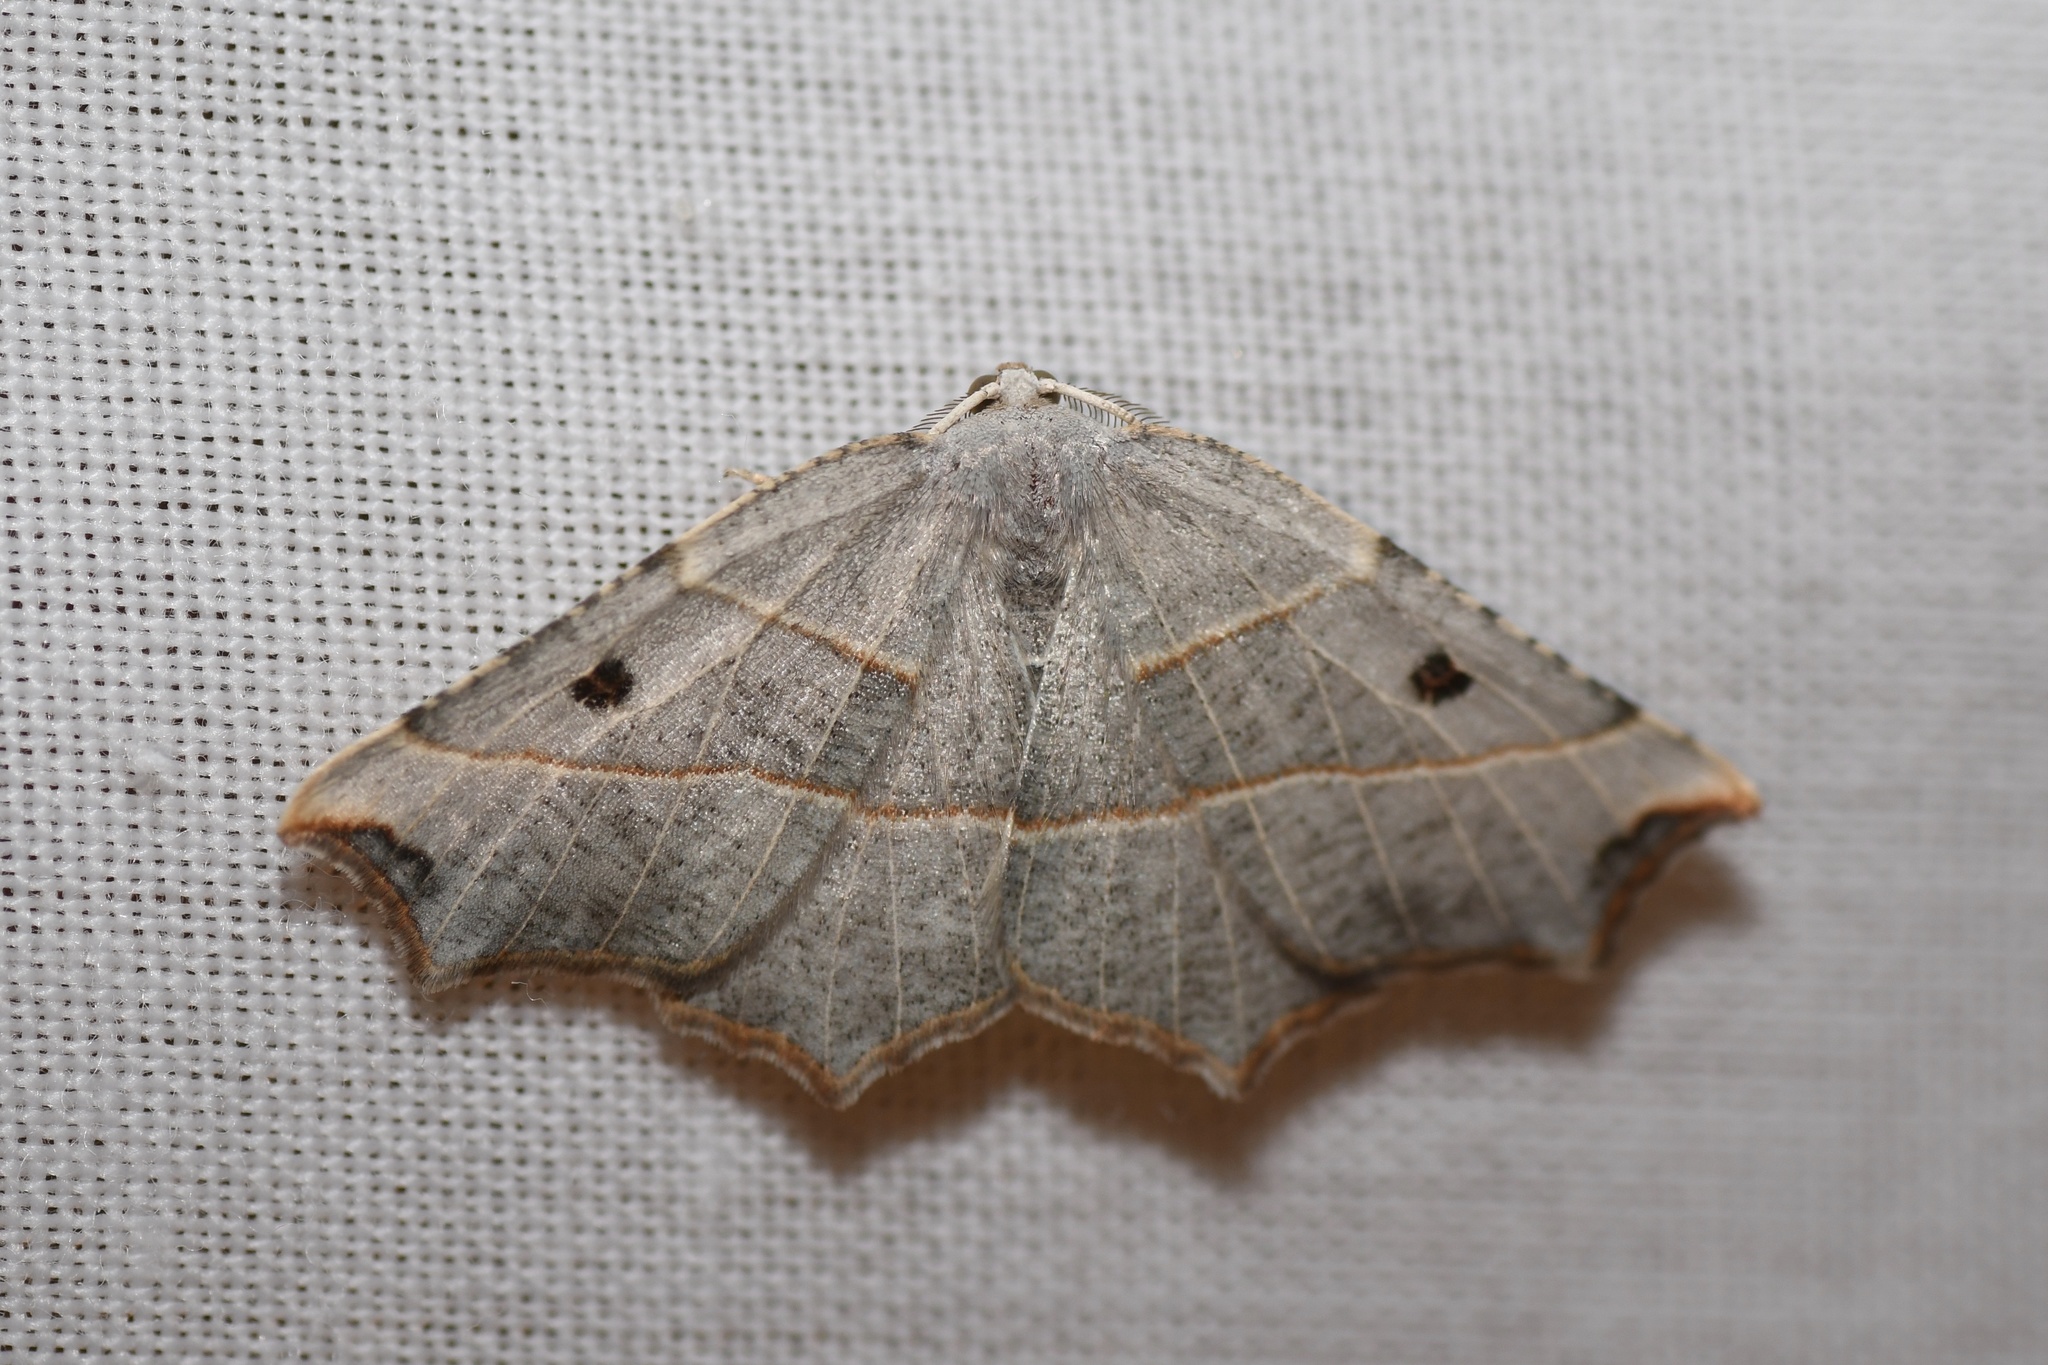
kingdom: Animalia
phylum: Arthropoda
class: Insecta
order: Lepidoptera
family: Geometridae
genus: Metanema
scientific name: Metanema inatomaria
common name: Pale metanema
